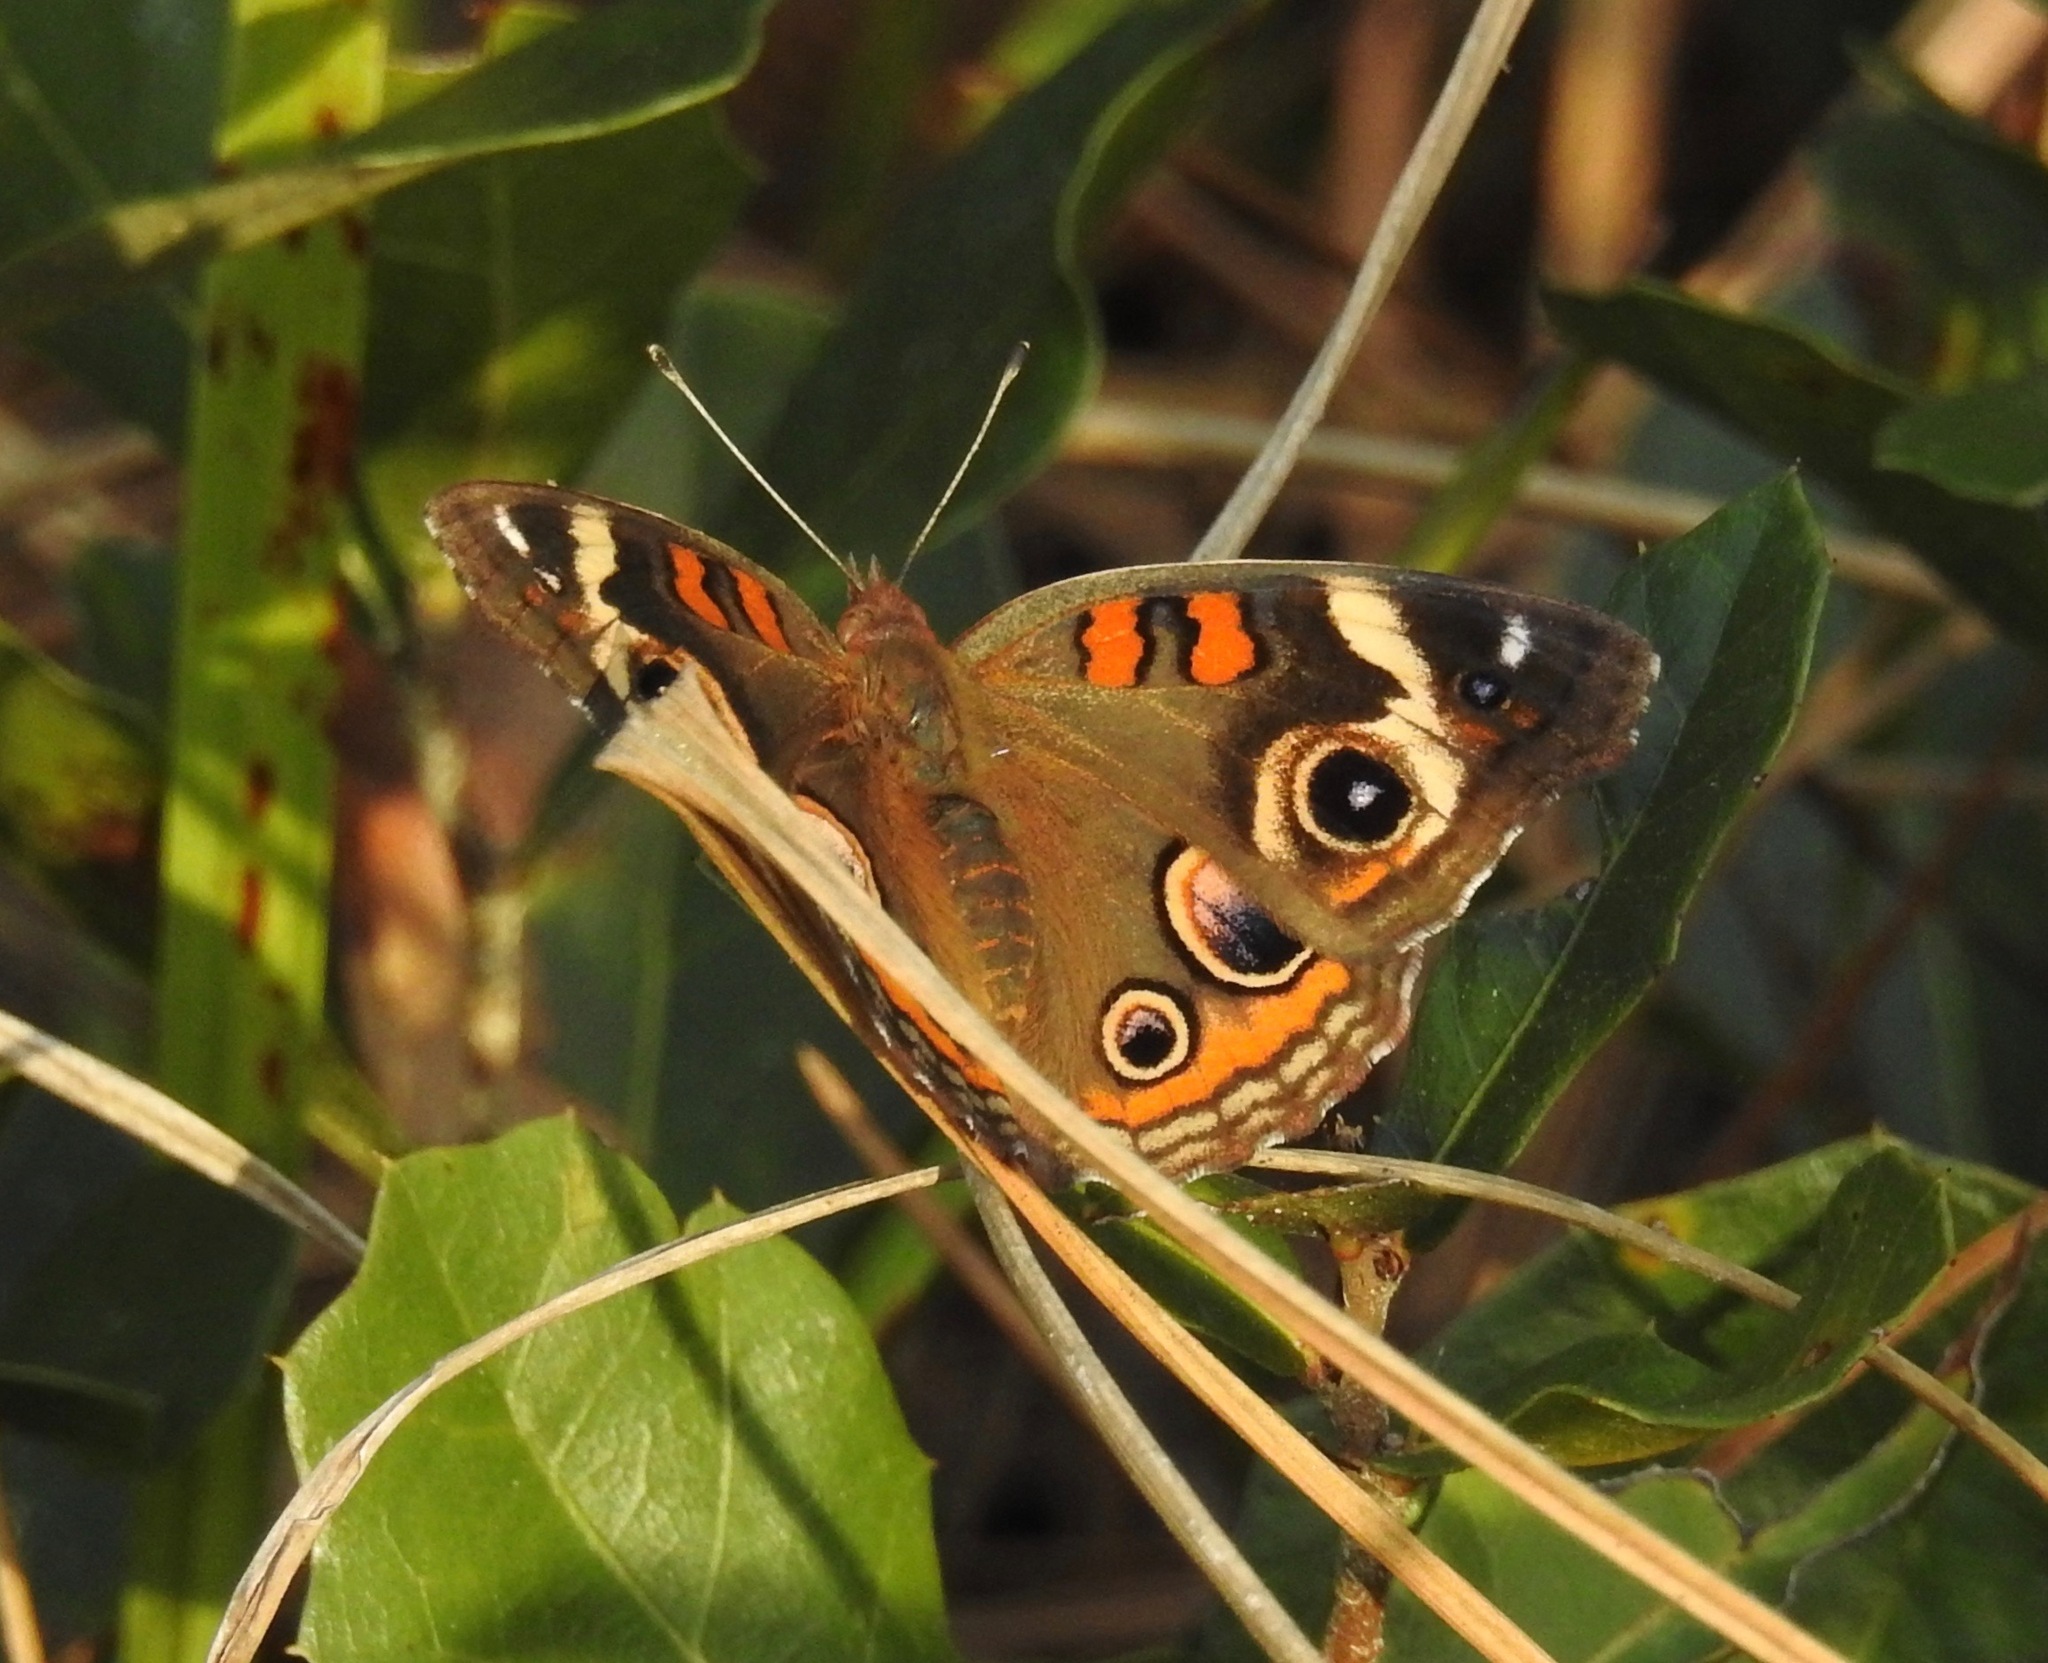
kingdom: Animalia
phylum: Arthropoda
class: Insecta
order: Lepidoptera
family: Nymphalidae
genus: Junonia
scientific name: Junonia coenia
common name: Common buckeye
